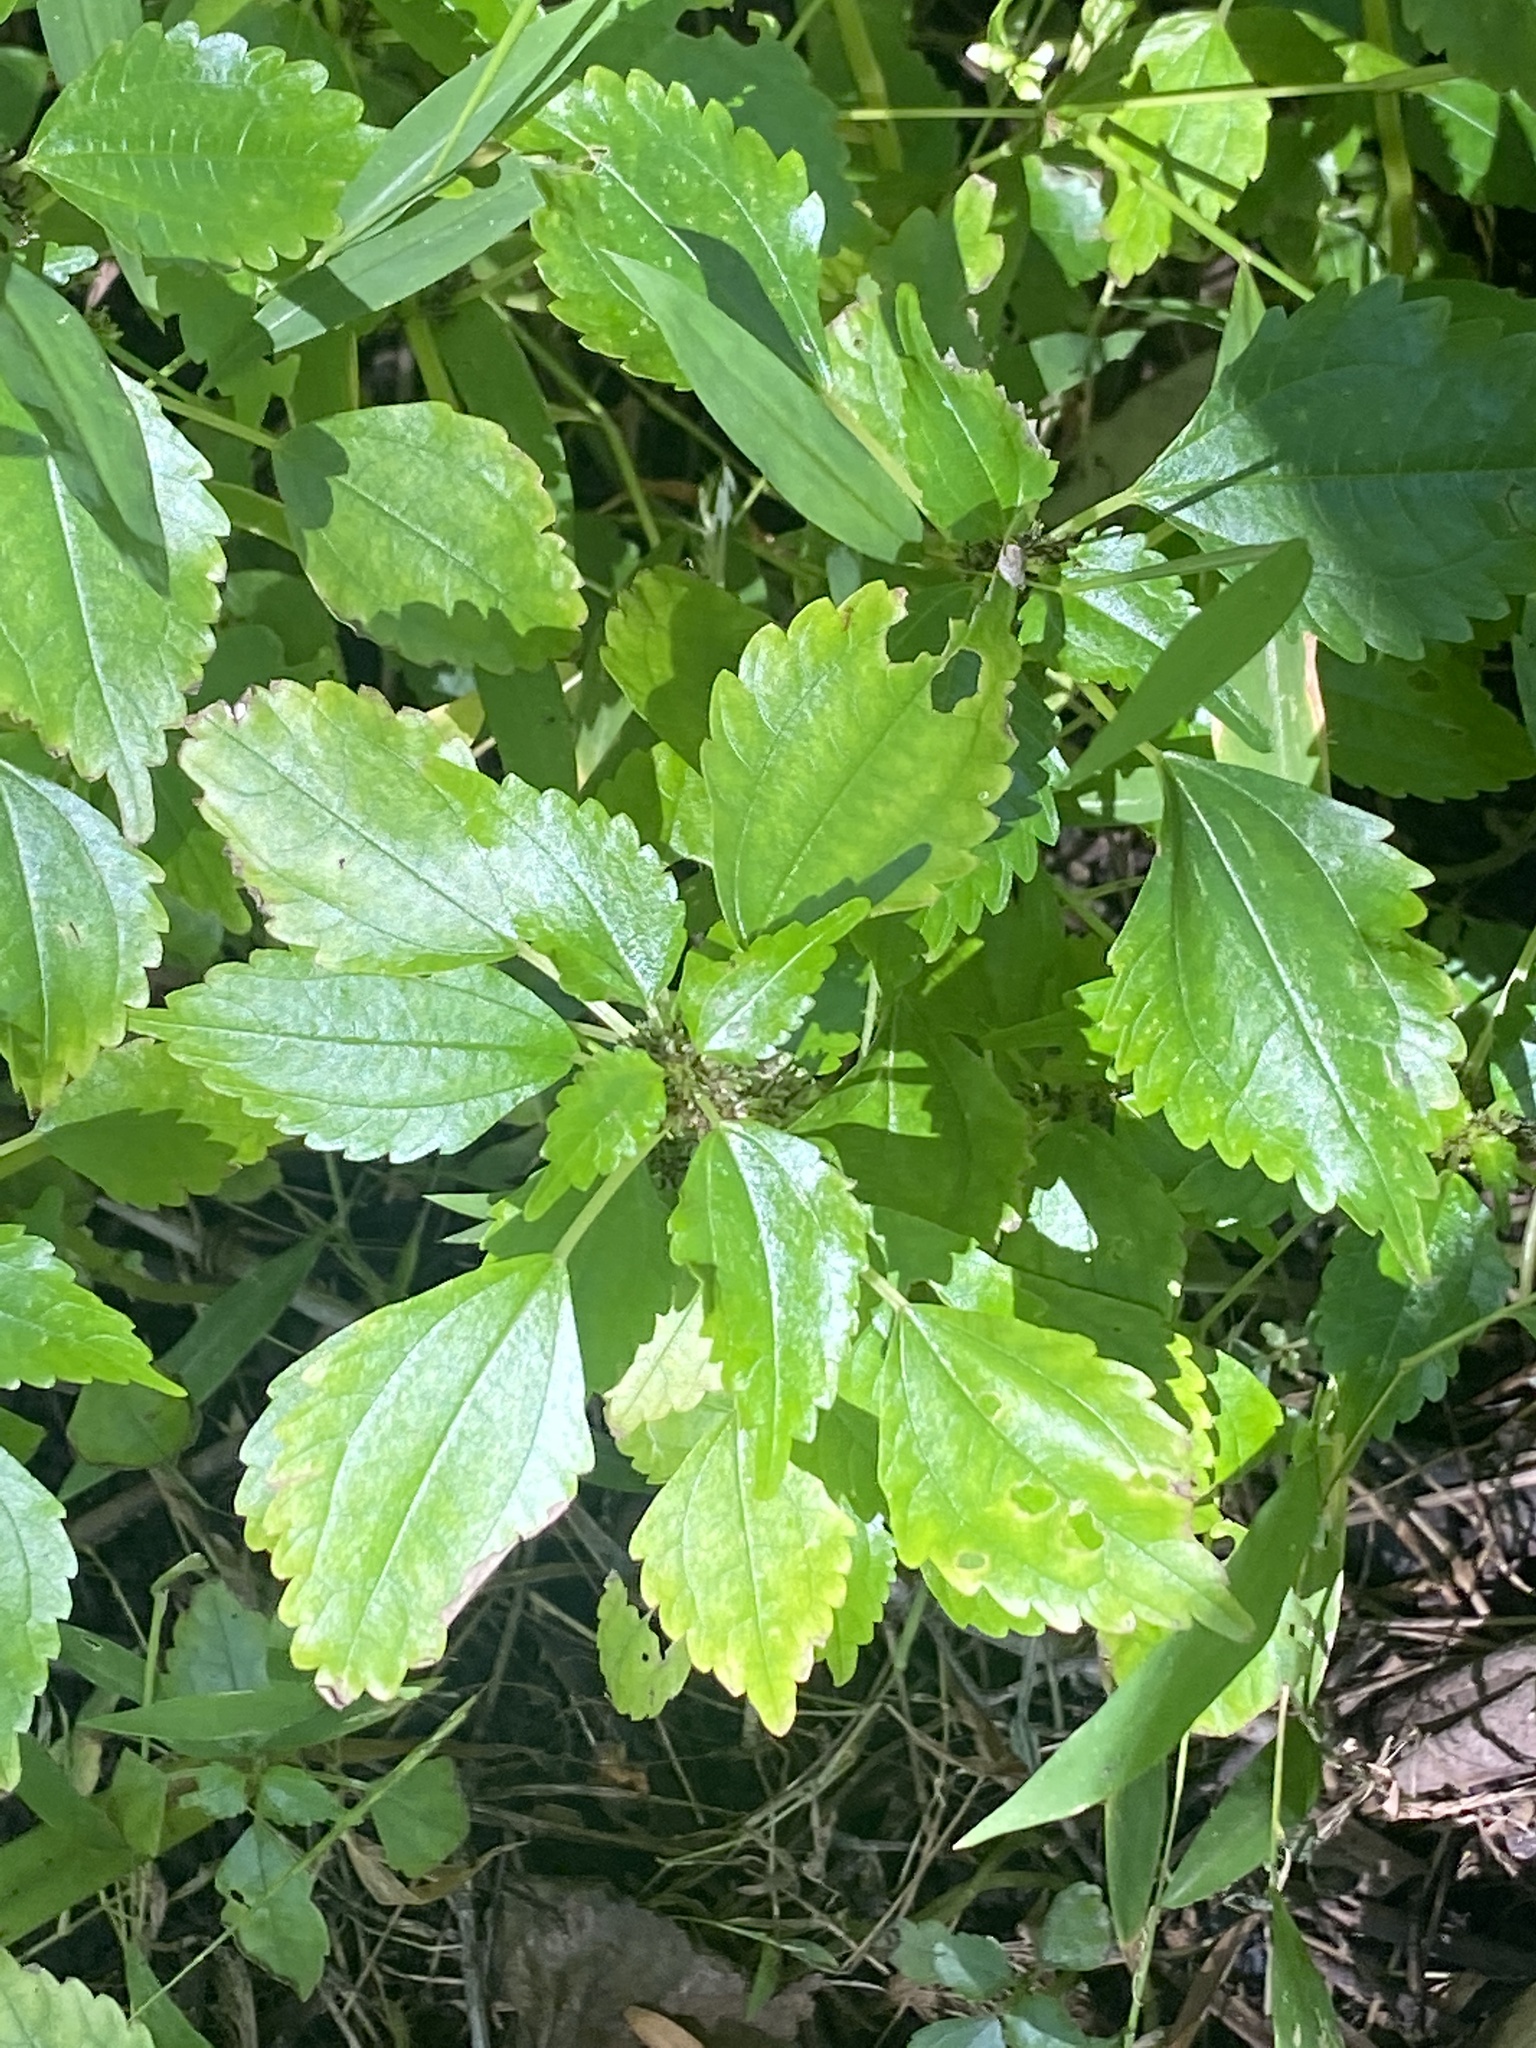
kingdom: Plantae
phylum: Tracheophyta
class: Magnoliopsida
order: Rosales
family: Urticaceae
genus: Pilea
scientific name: Pilea pumila
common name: Clearweed
